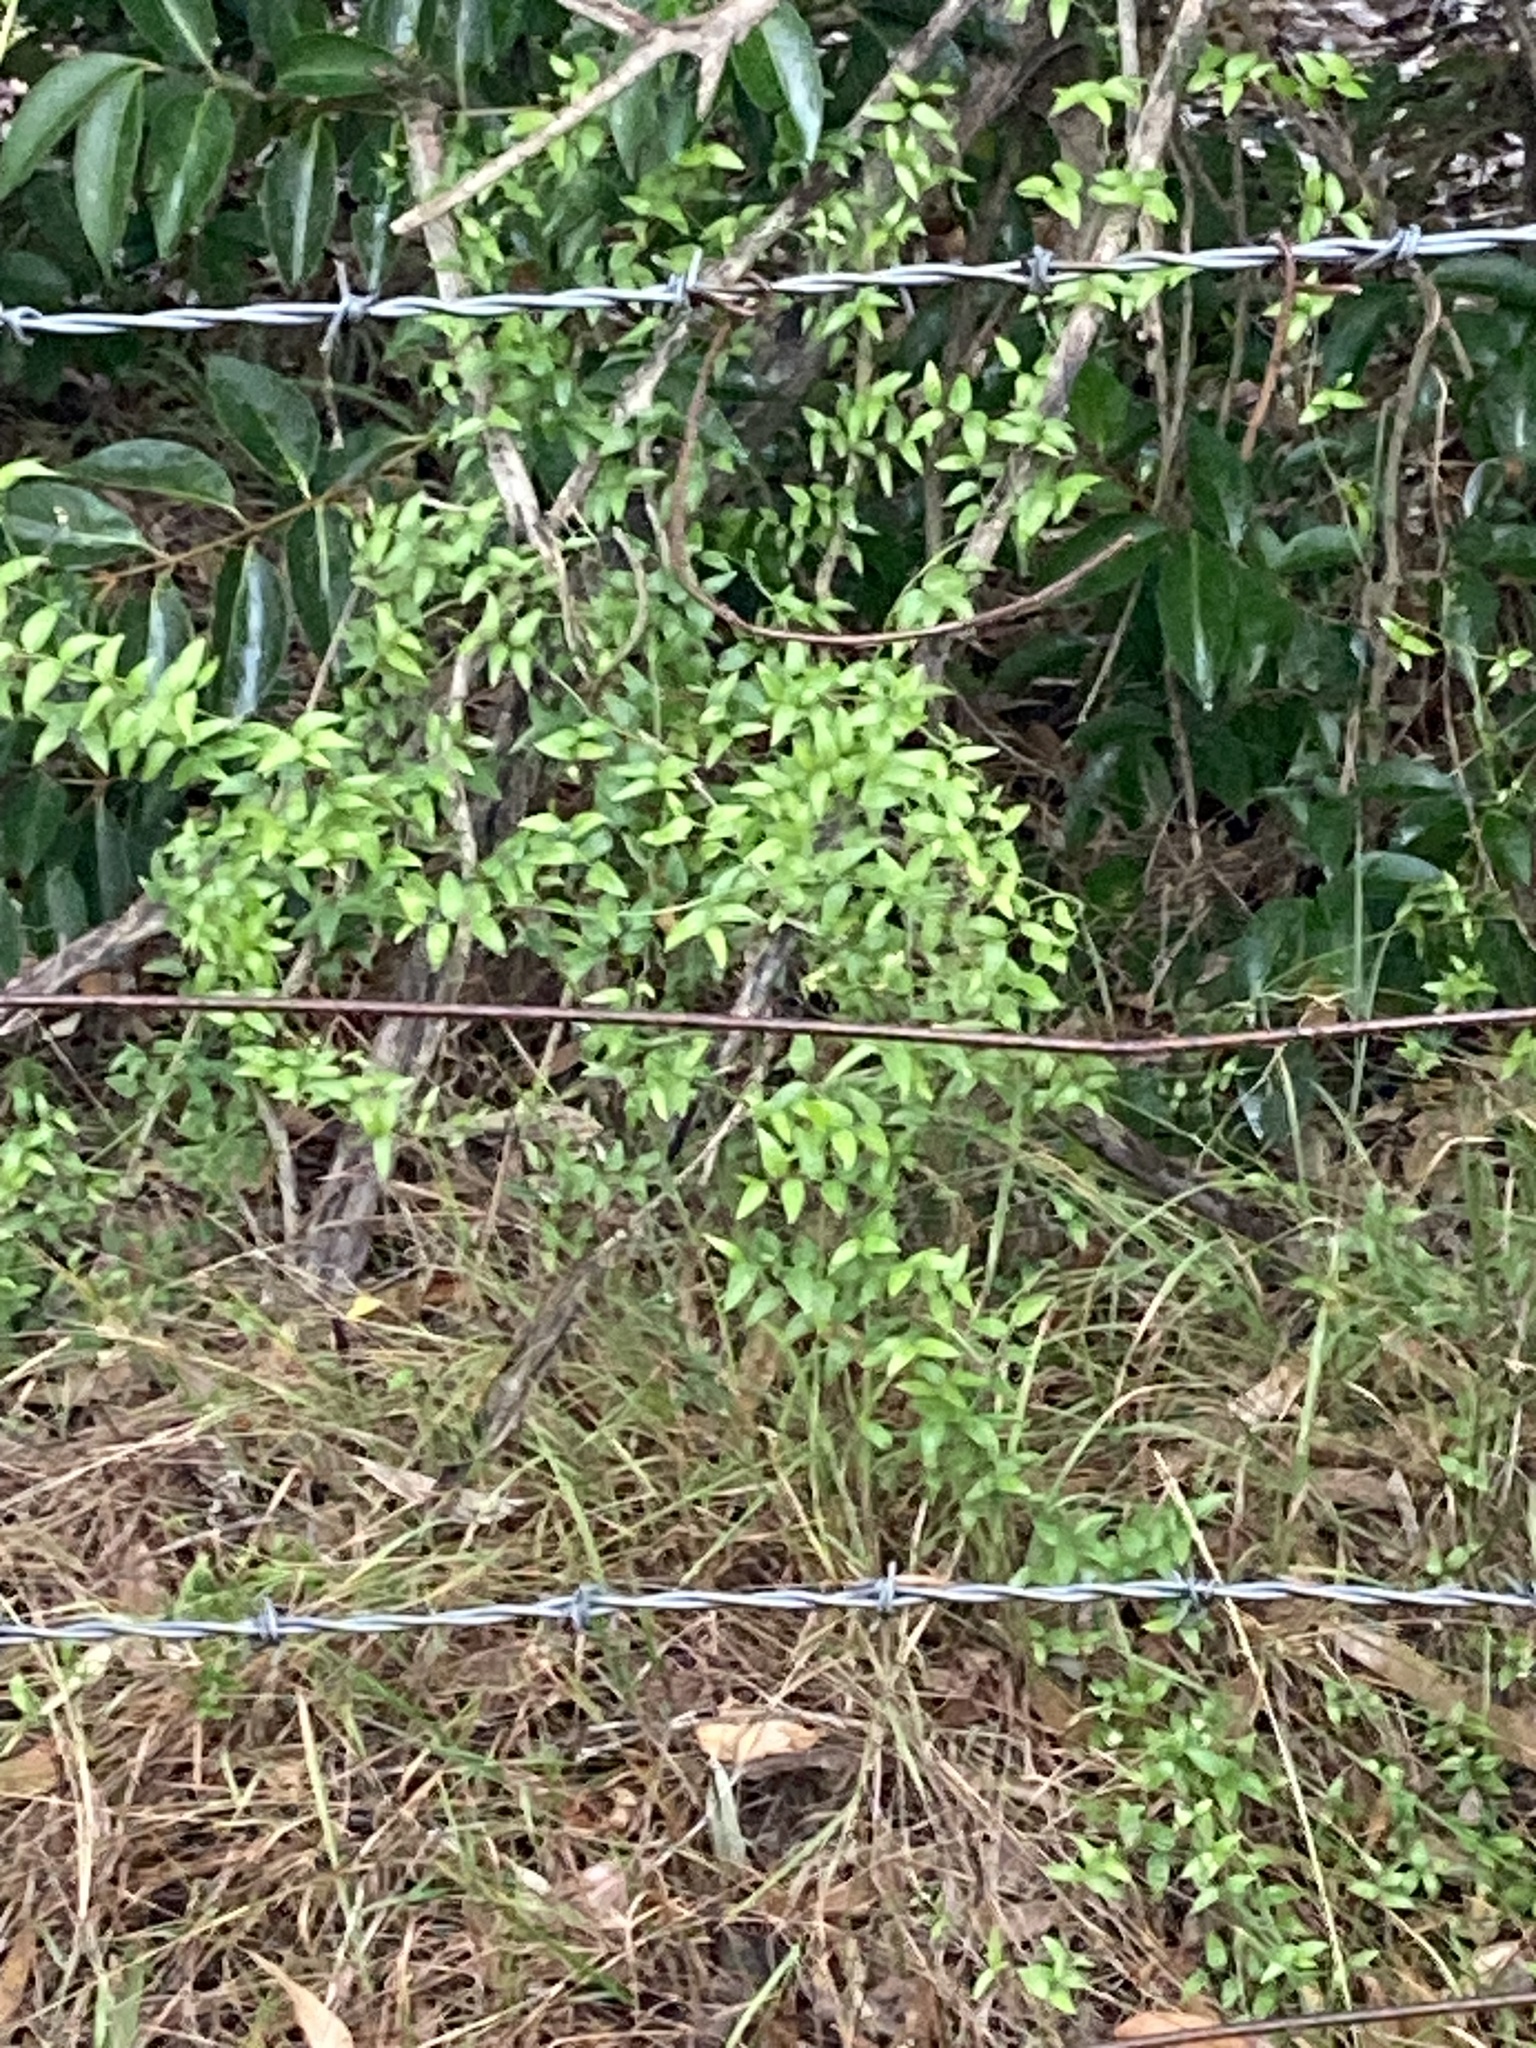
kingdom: Plantae
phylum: Tracheophyta
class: Liliopsida
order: Asparagales
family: Asparagaceae
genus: Asparagus
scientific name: Asparagus asparagoides
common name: African asparagus fern
